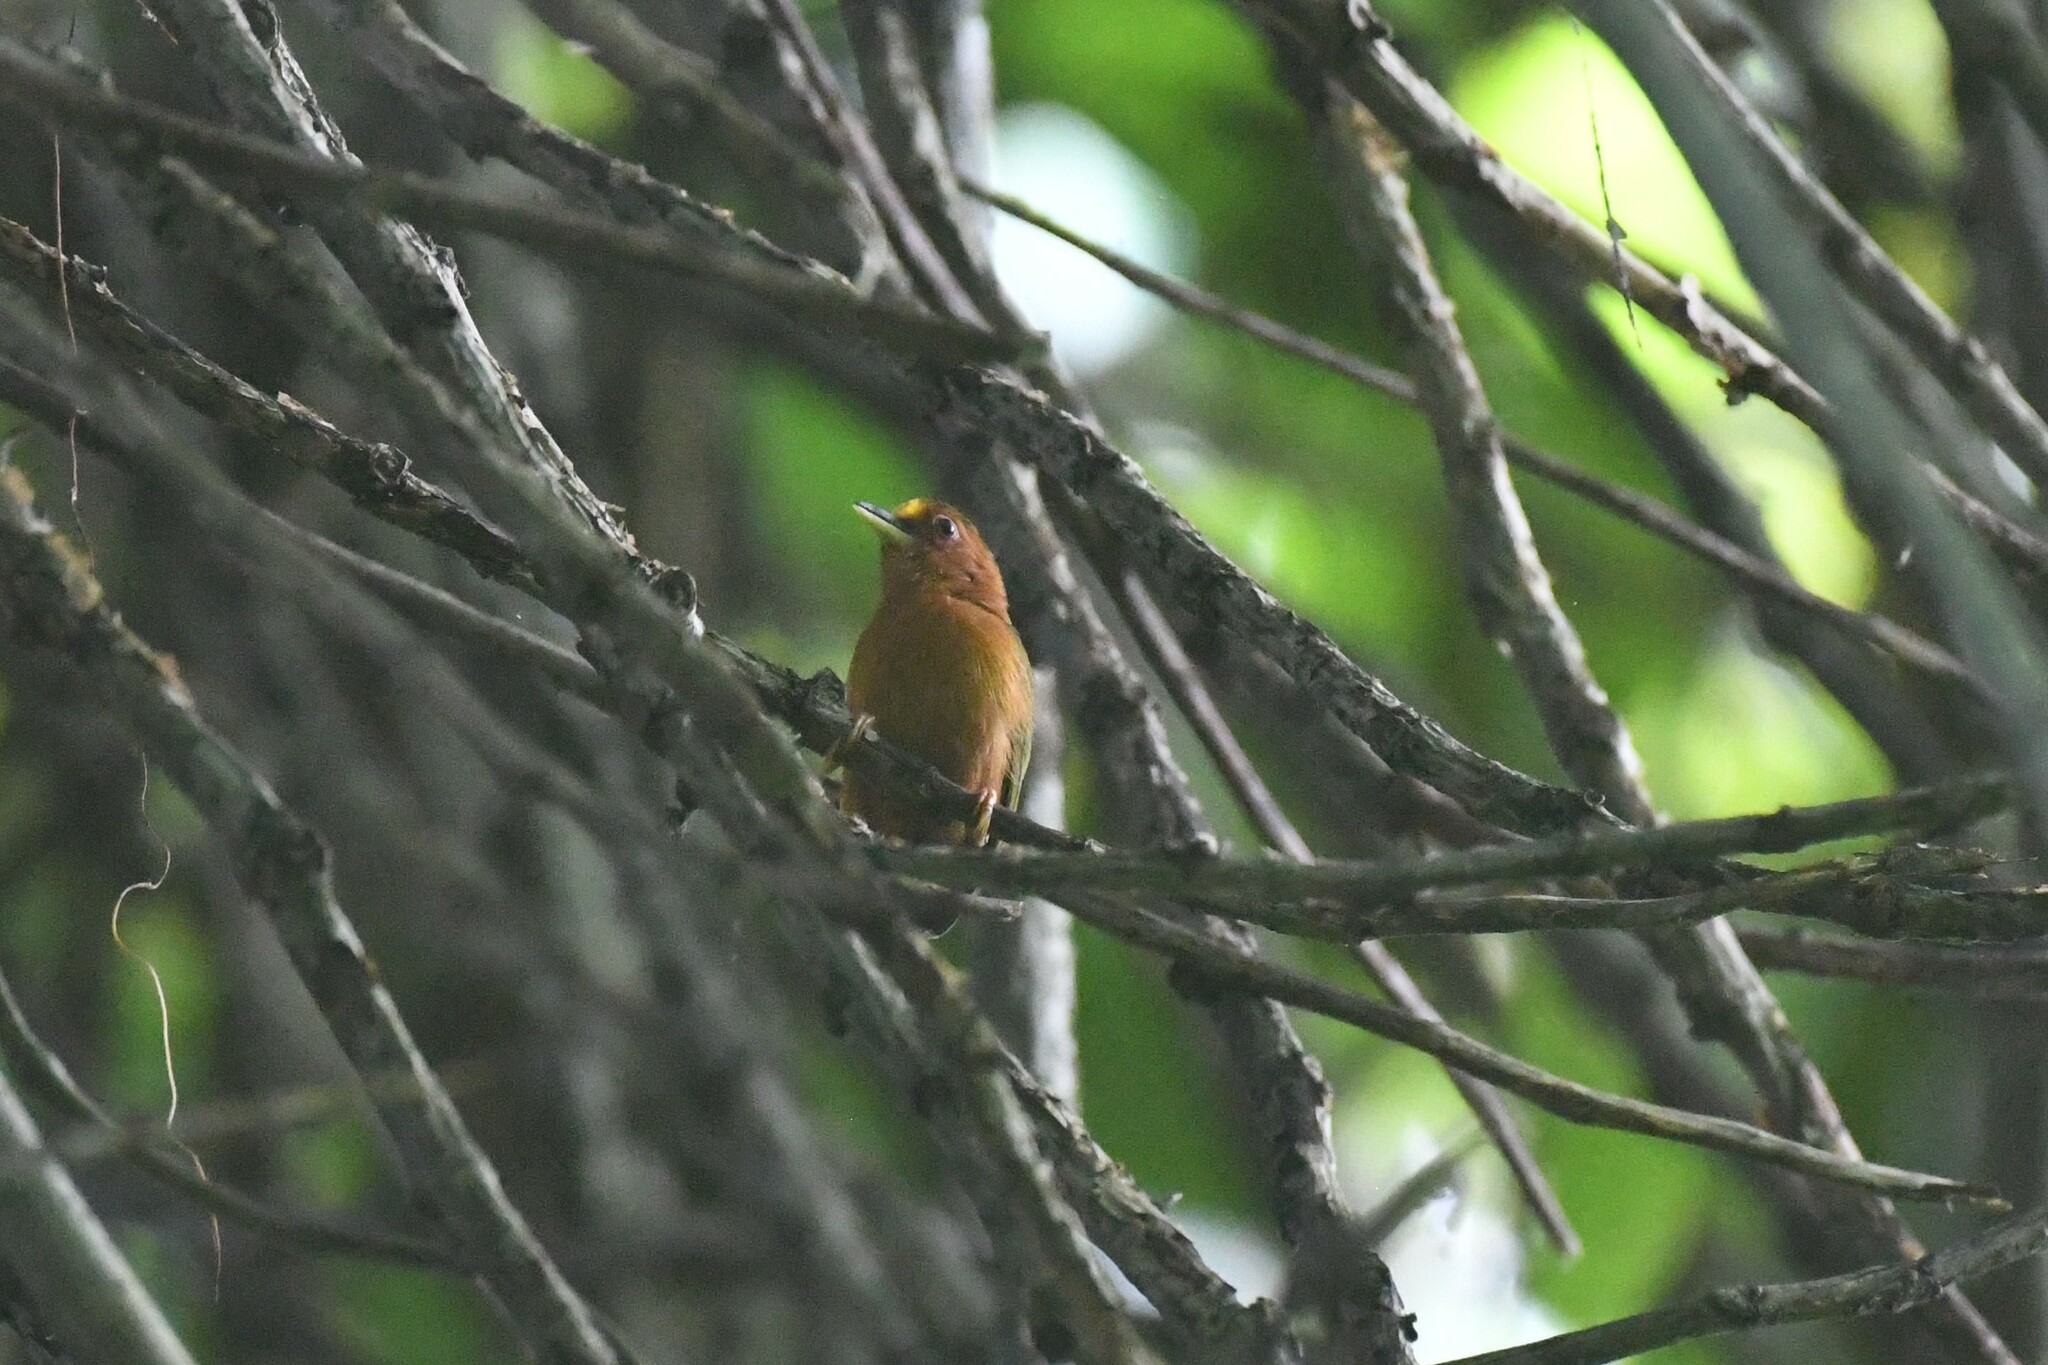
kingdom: Animalia
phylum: Chordata
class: Aves
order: Piciformes
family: Picidae
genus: Sasia
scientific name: Sasia abnormis
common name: Rufous piculet
